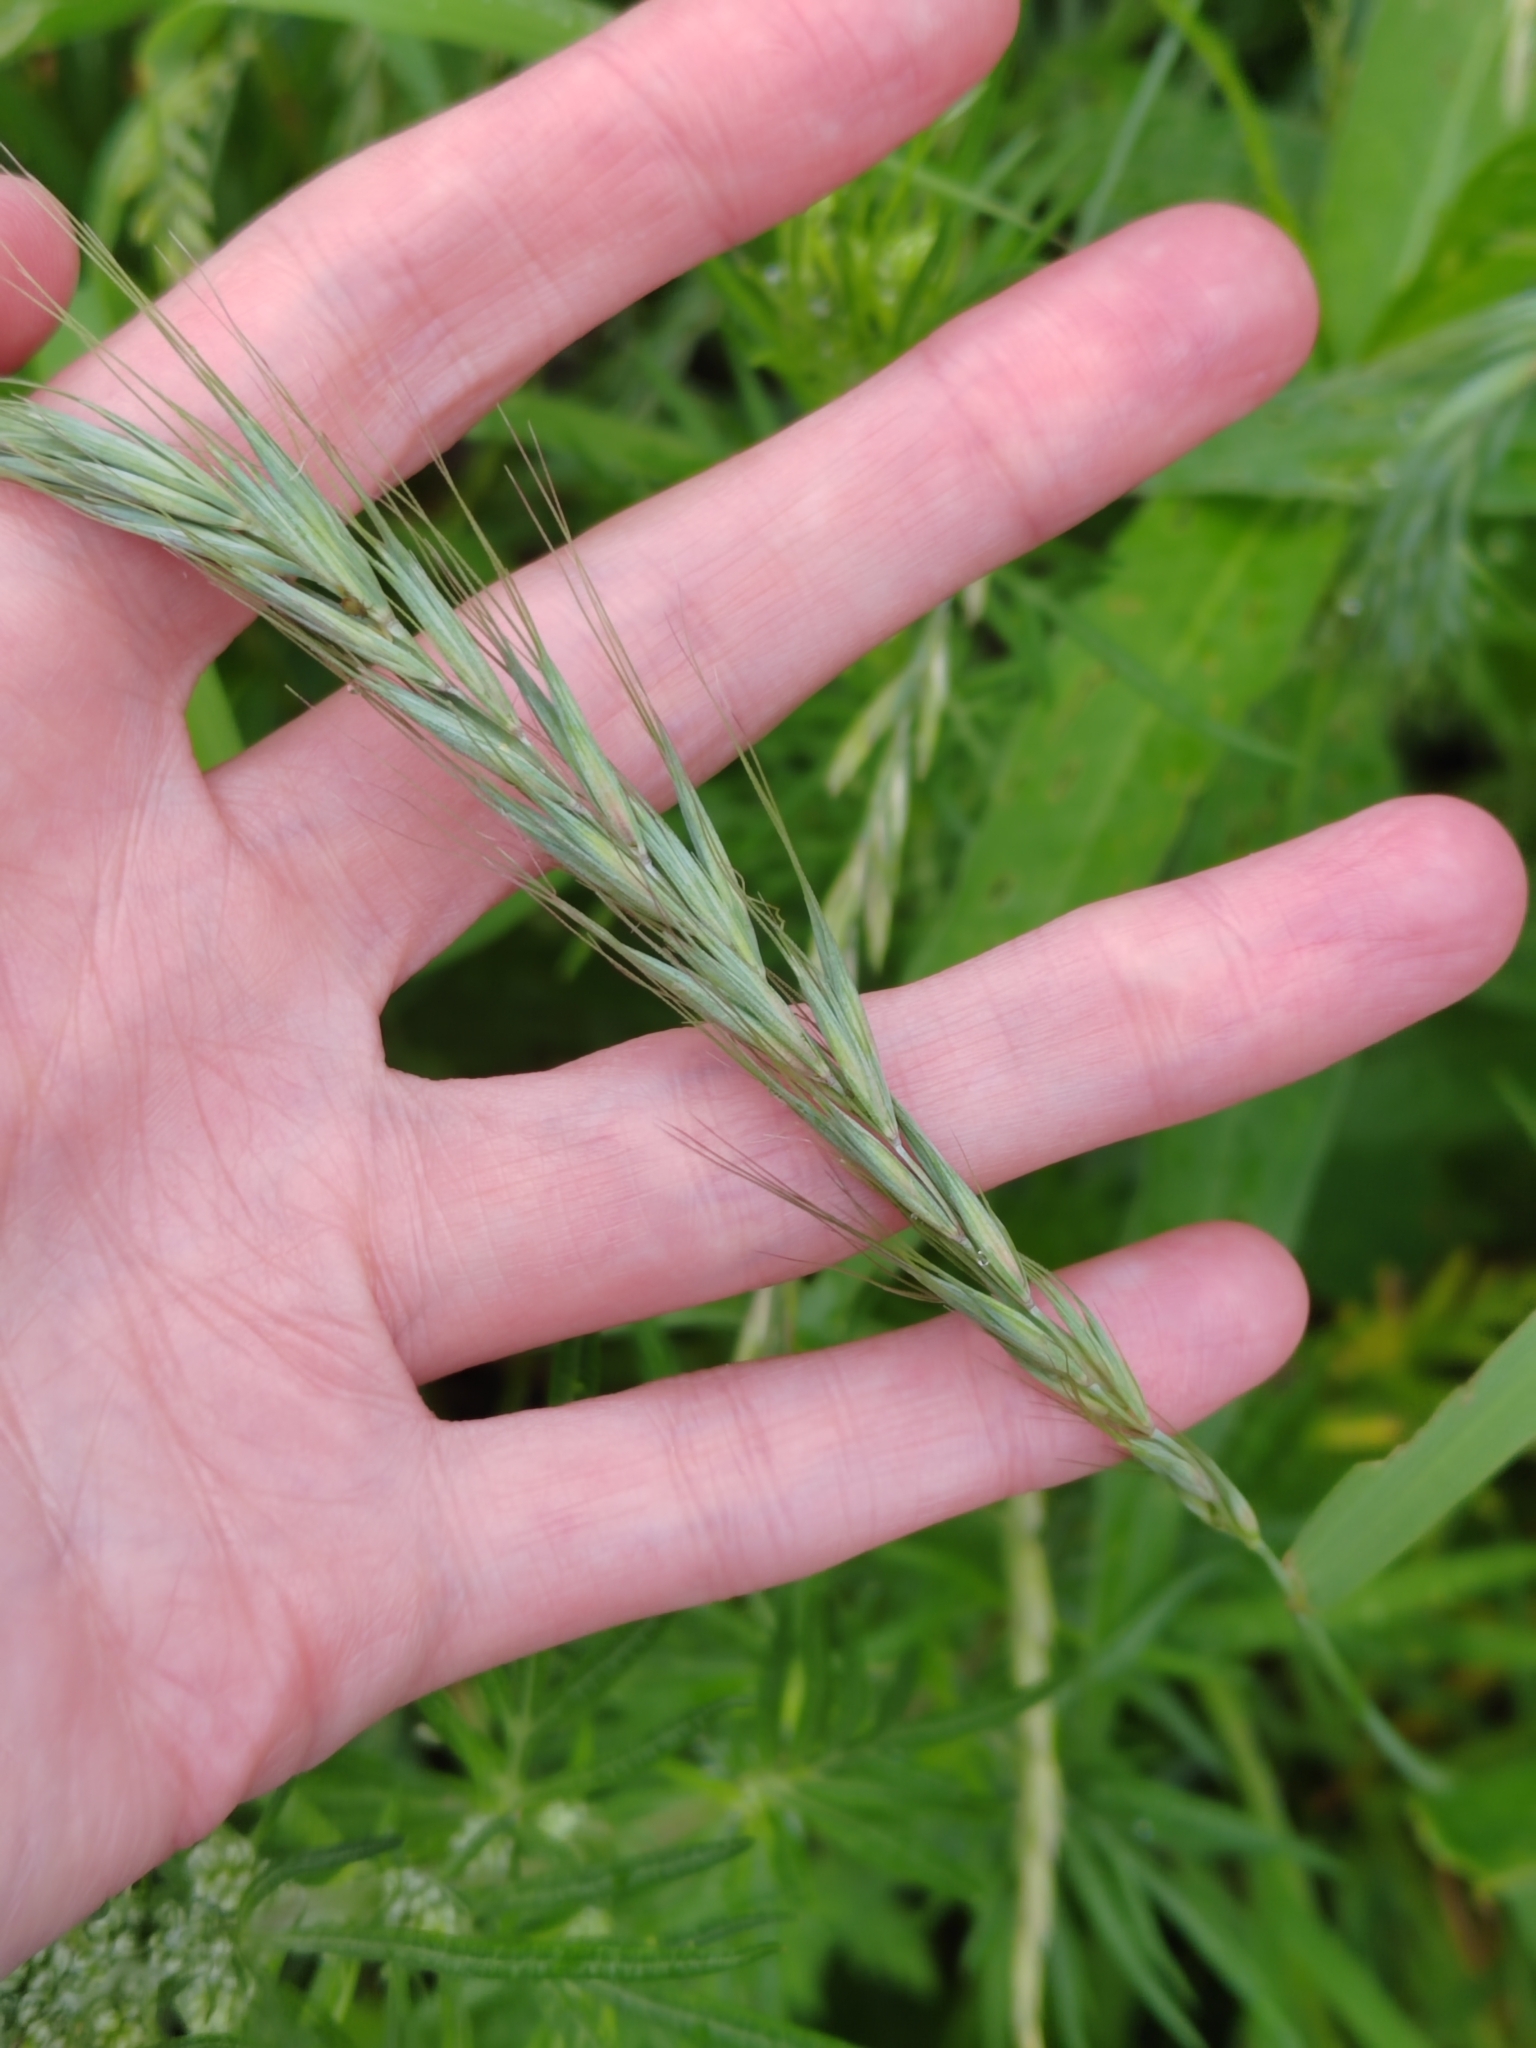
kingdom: Plantae
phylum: Tracheophyta
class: Liliopsida
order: Poales
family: Poaceae
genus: Elymus
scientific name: Elymus caninus
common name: Bearded couch
